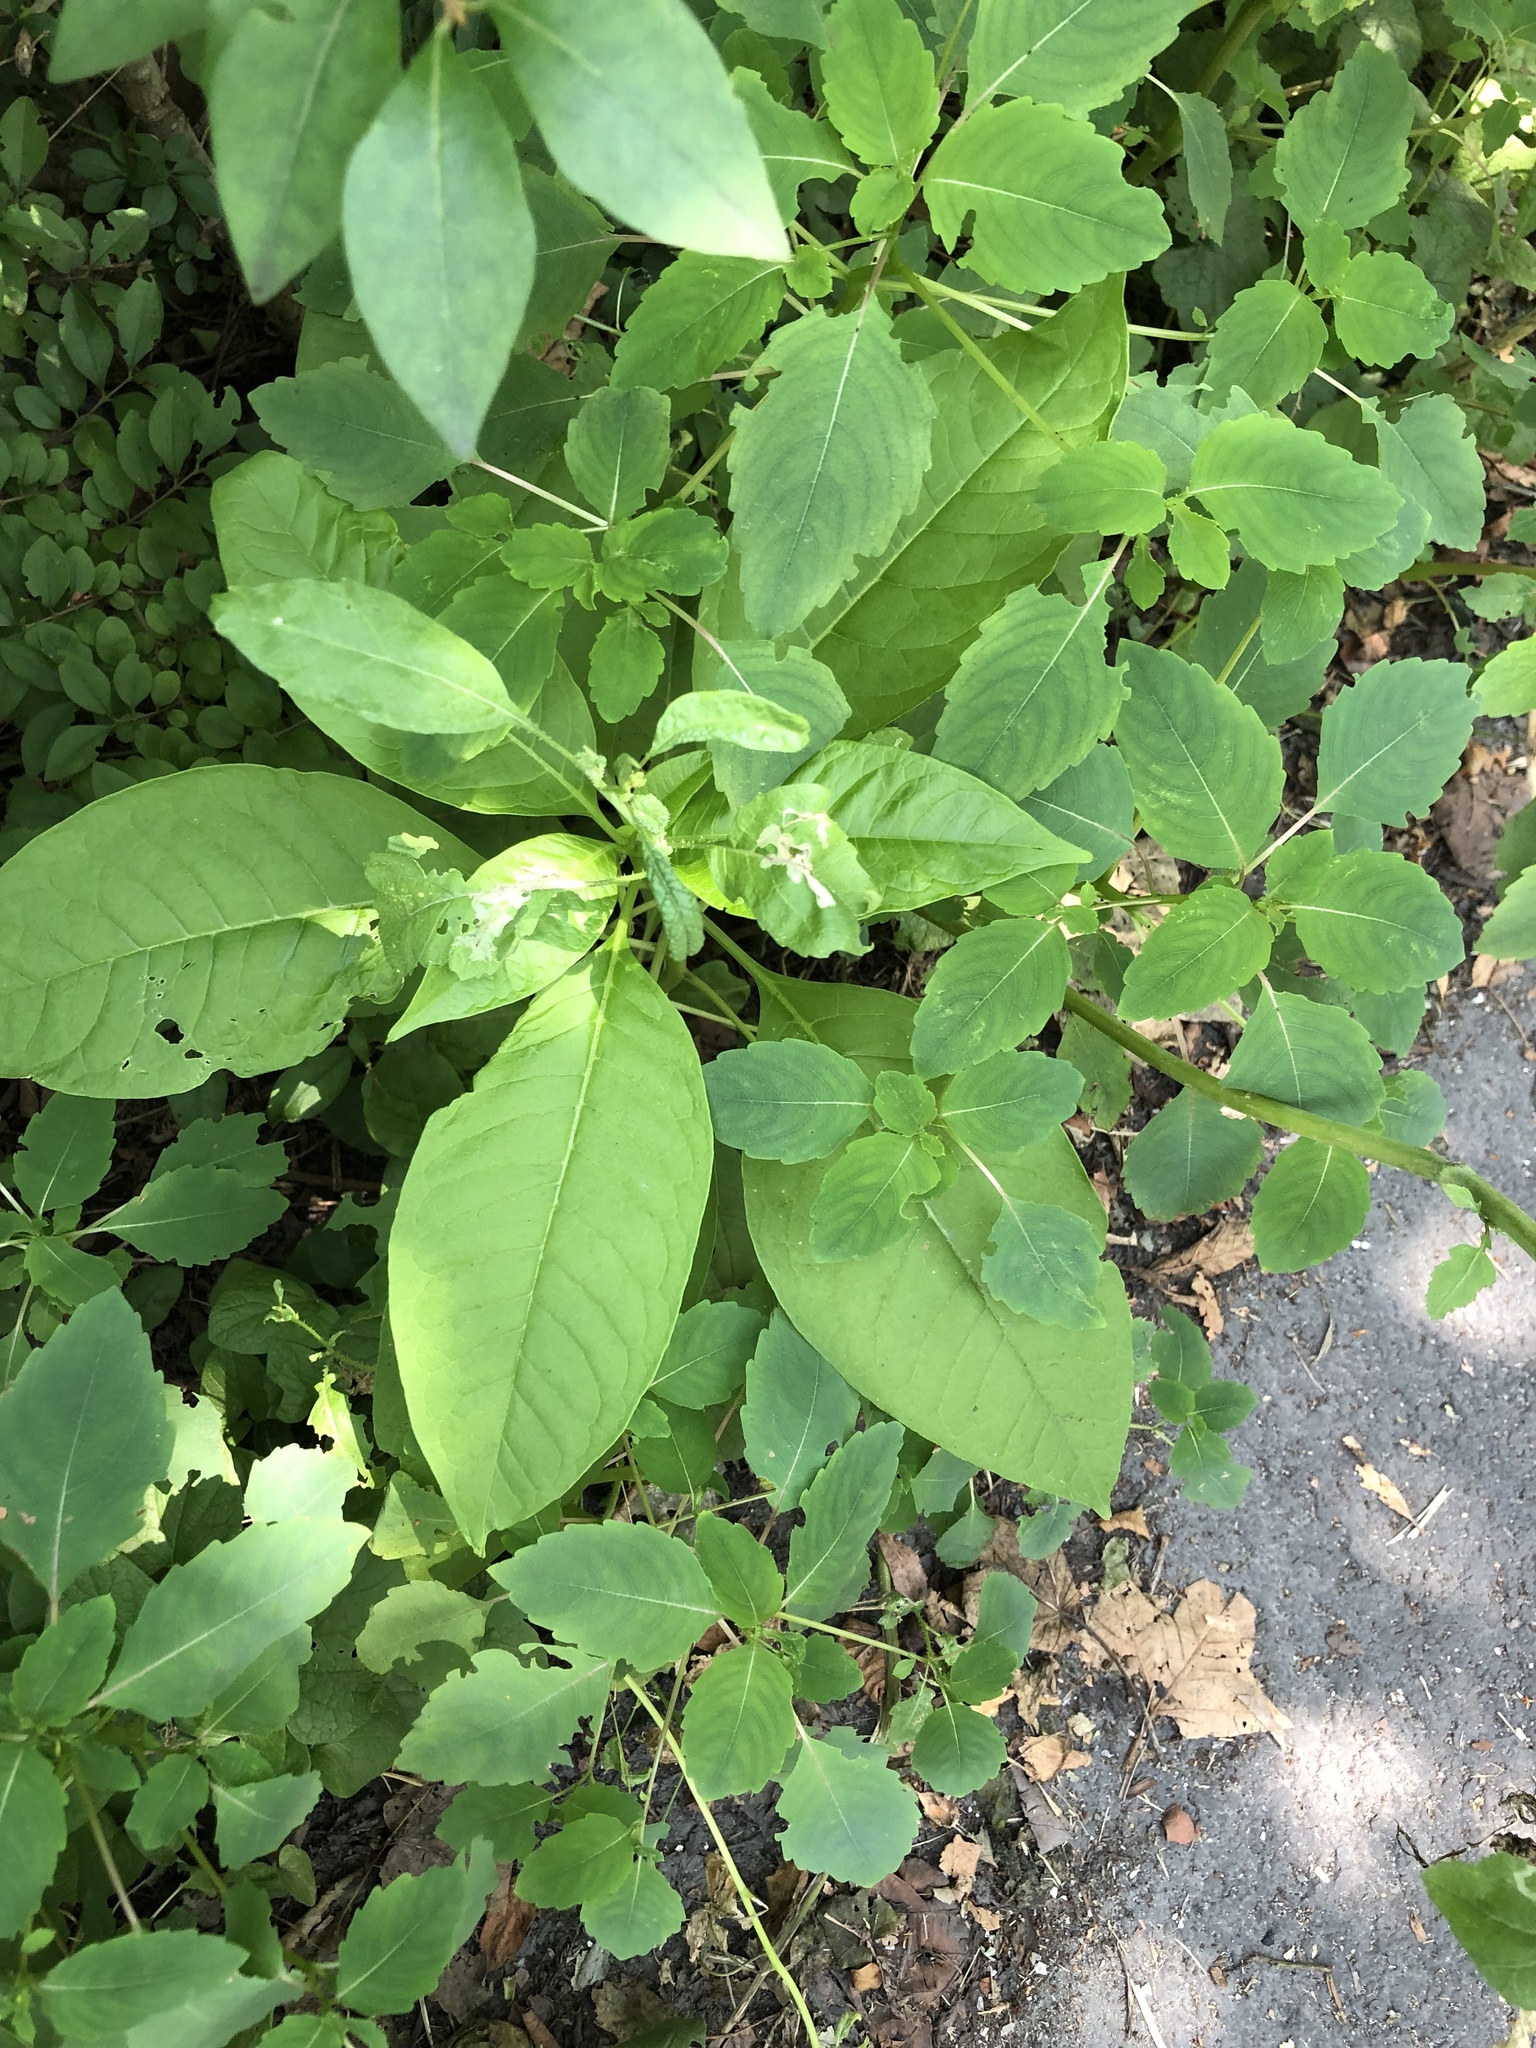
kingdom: Plantae
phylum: Tracheophyta
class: Magnoliopsida
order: Caryophyllales
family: Phytolaccaceae
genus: Phytolacca
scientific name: Phytolacca americana
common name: American pokeweed
